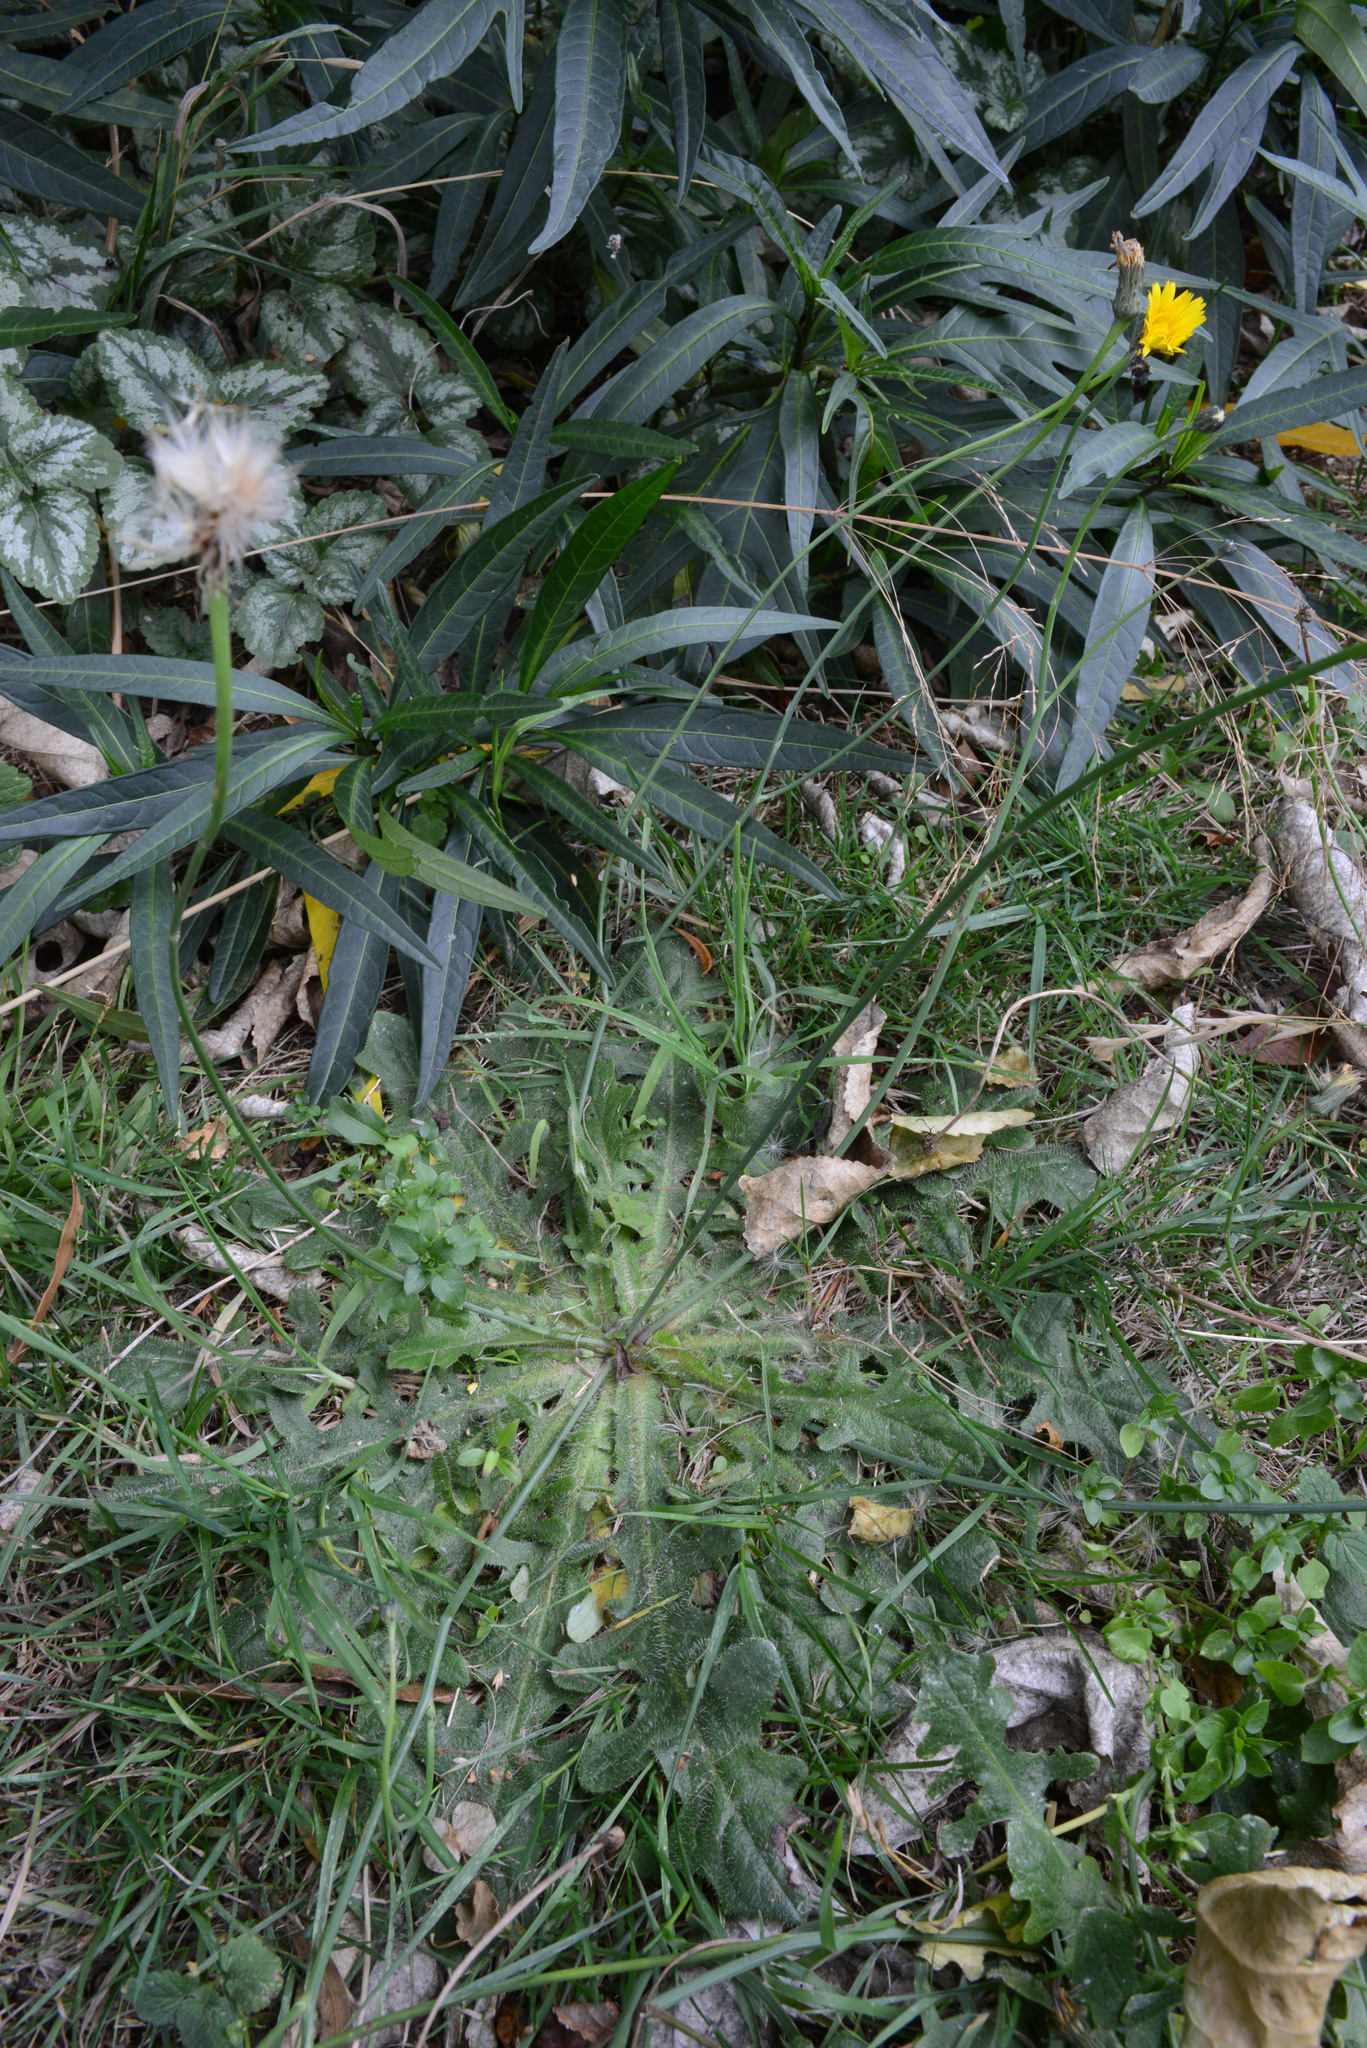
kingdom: Plantae
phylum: Tracheophyta
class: Magnoliopsida
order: Asterales
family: Asteraceae
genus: Hypochaeris
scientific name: Hypochaeris radicata
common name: Flatweed
